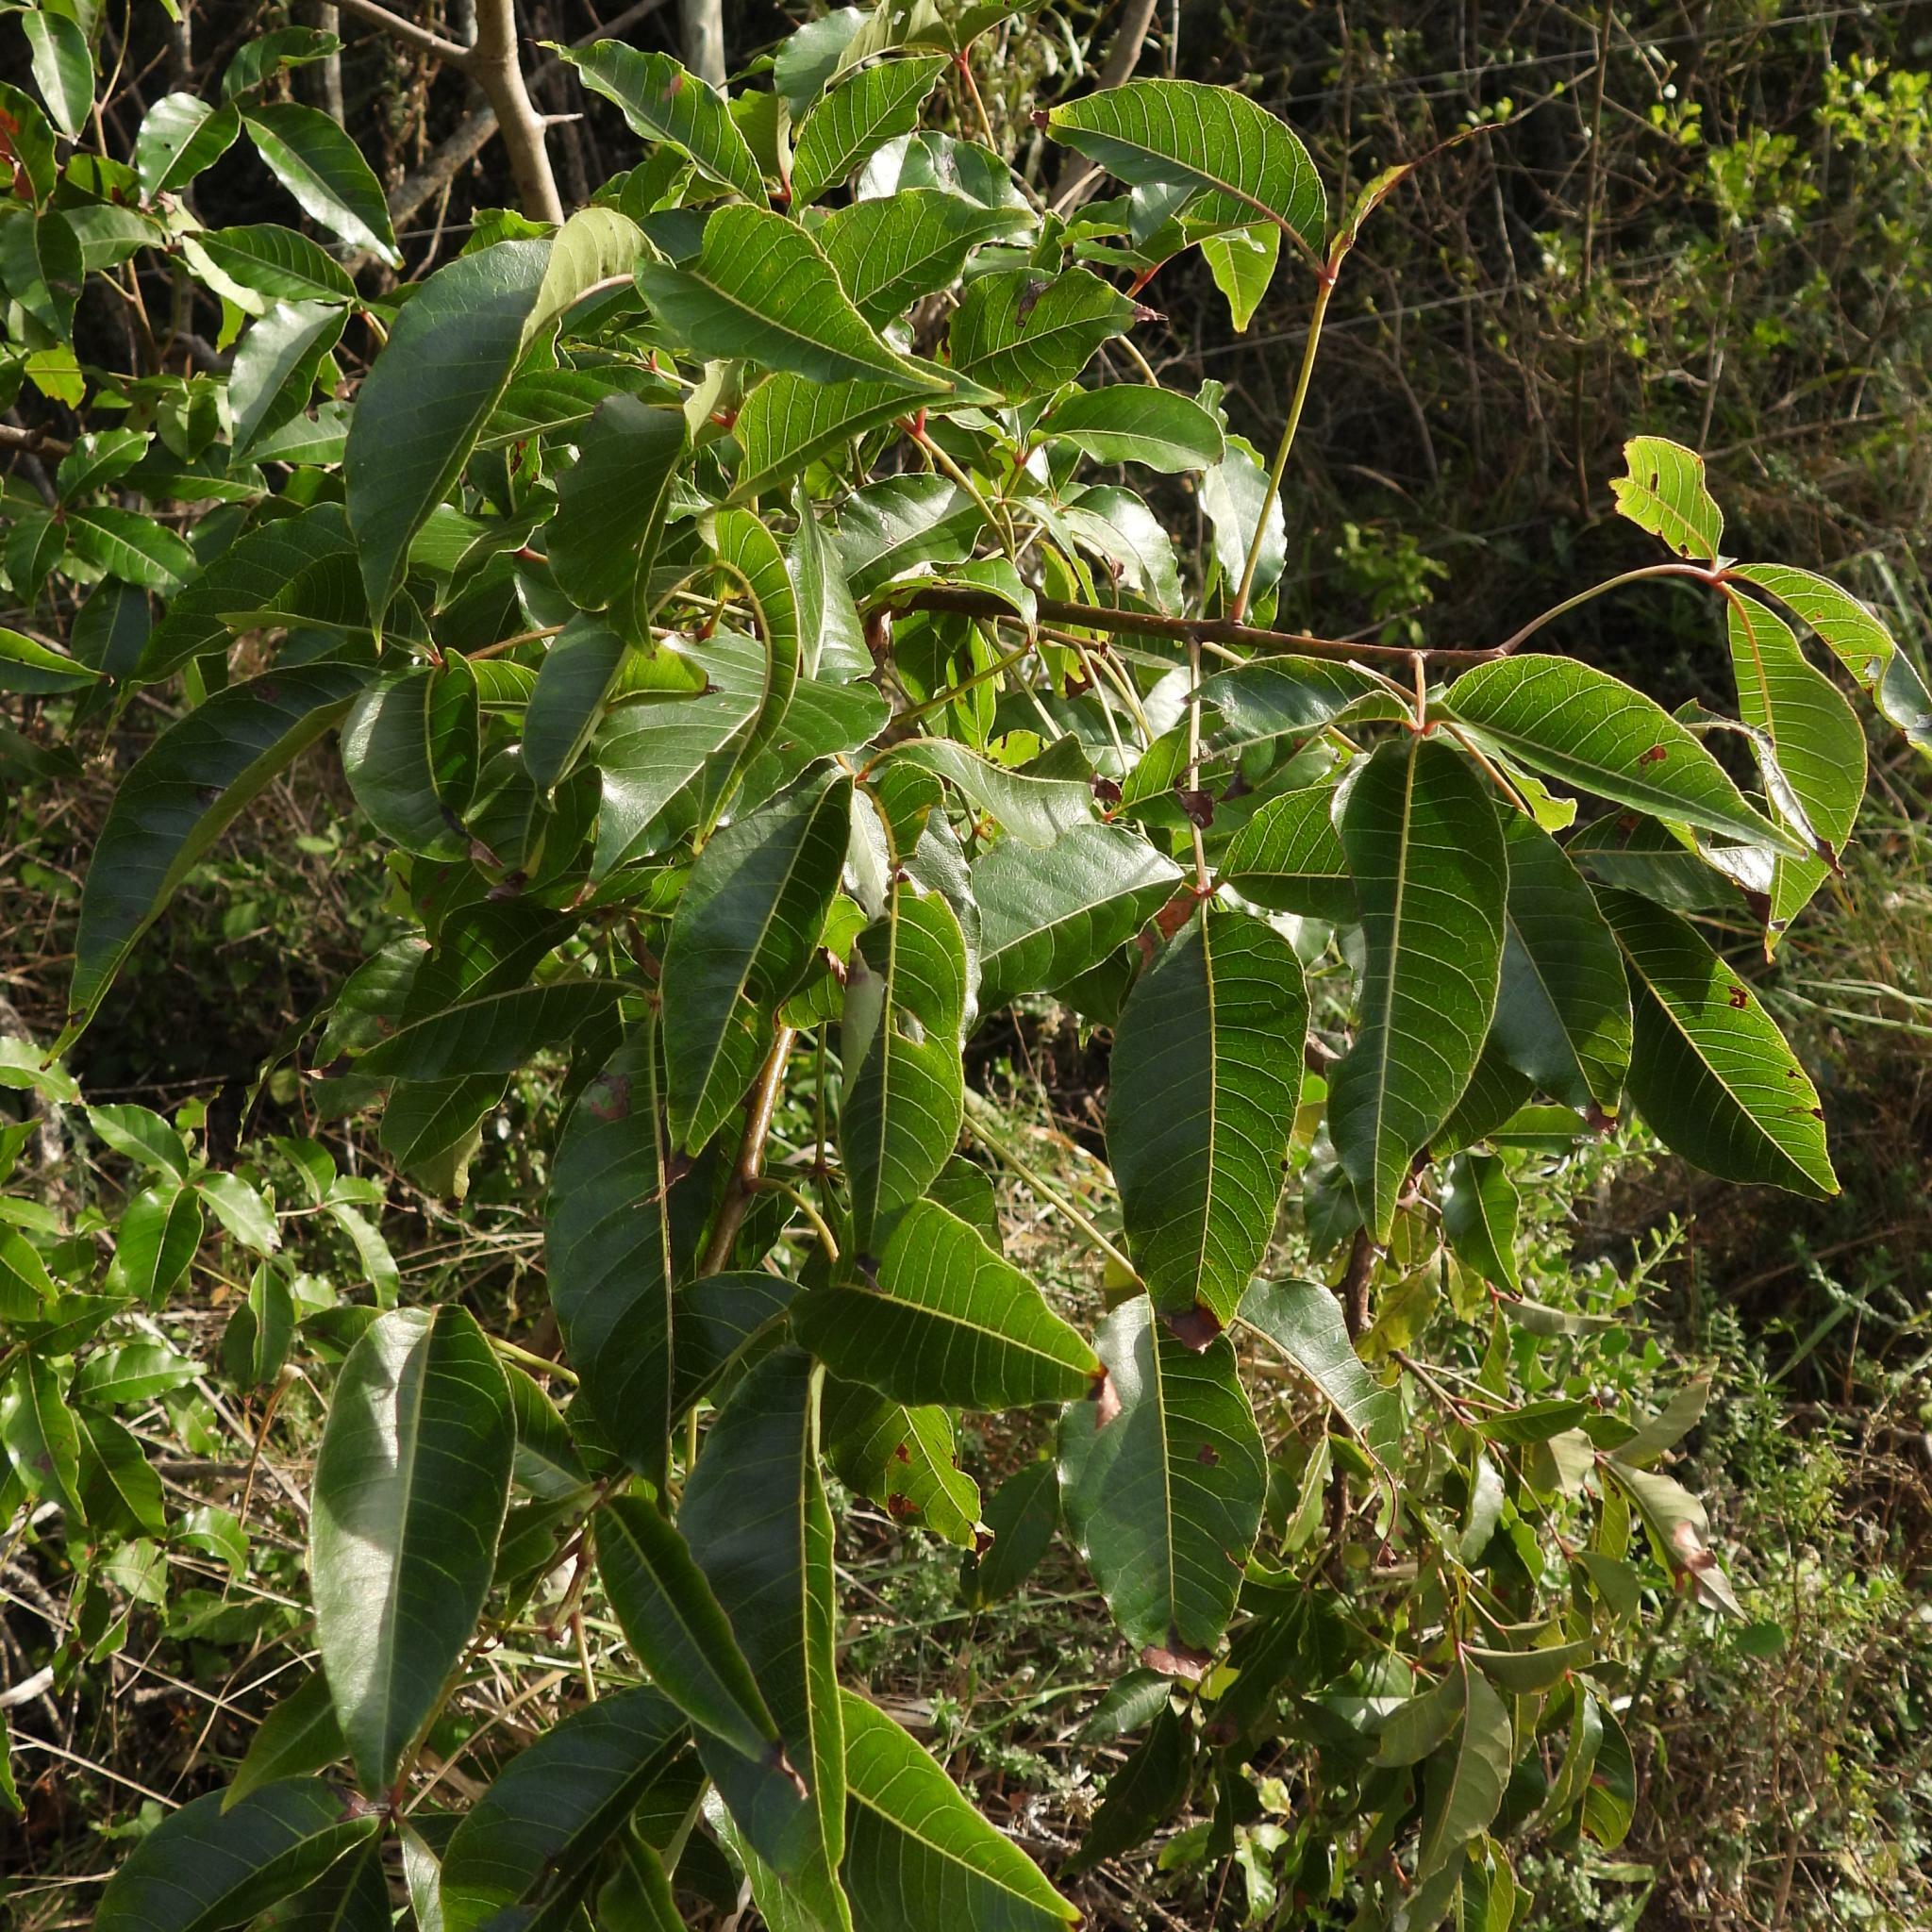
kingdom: Plantae
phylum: Tracheophyta
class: Magnoliopsida
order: Sapindales
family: Anacardiaceae
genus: Searsia
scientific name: Searsia chirindensis
